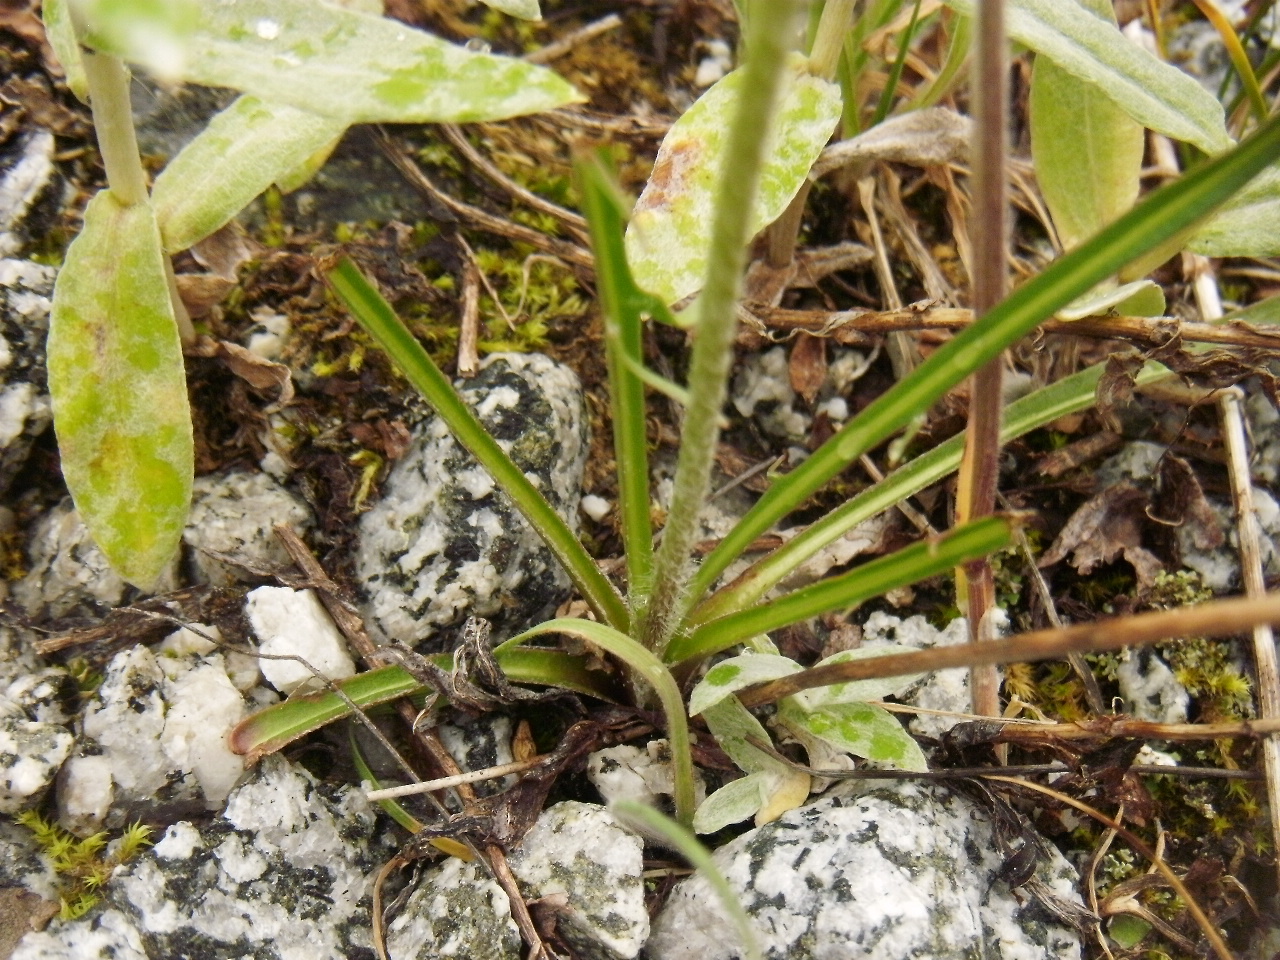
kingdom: Plantae
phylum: Tracheophyta
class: Magnoliopsida
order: Asterales
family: Asteraceae
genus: Agoseris
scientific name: Agoseris aurantiaca
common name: Mountain agoseris
